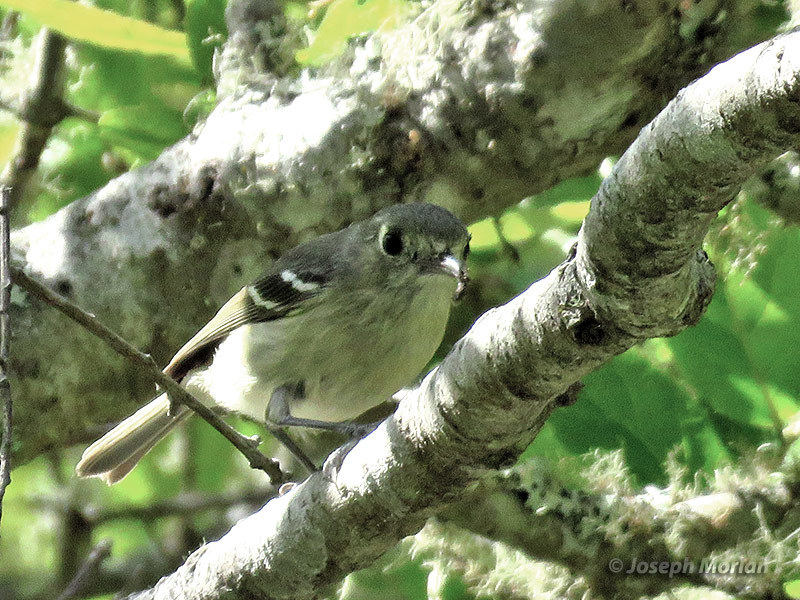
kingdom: Animalia
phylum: Chordata
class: Aves
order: Passeriformes
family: Vireonidae
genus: Vireo
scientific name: Vireo huttoni
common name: Hutton's vireo
